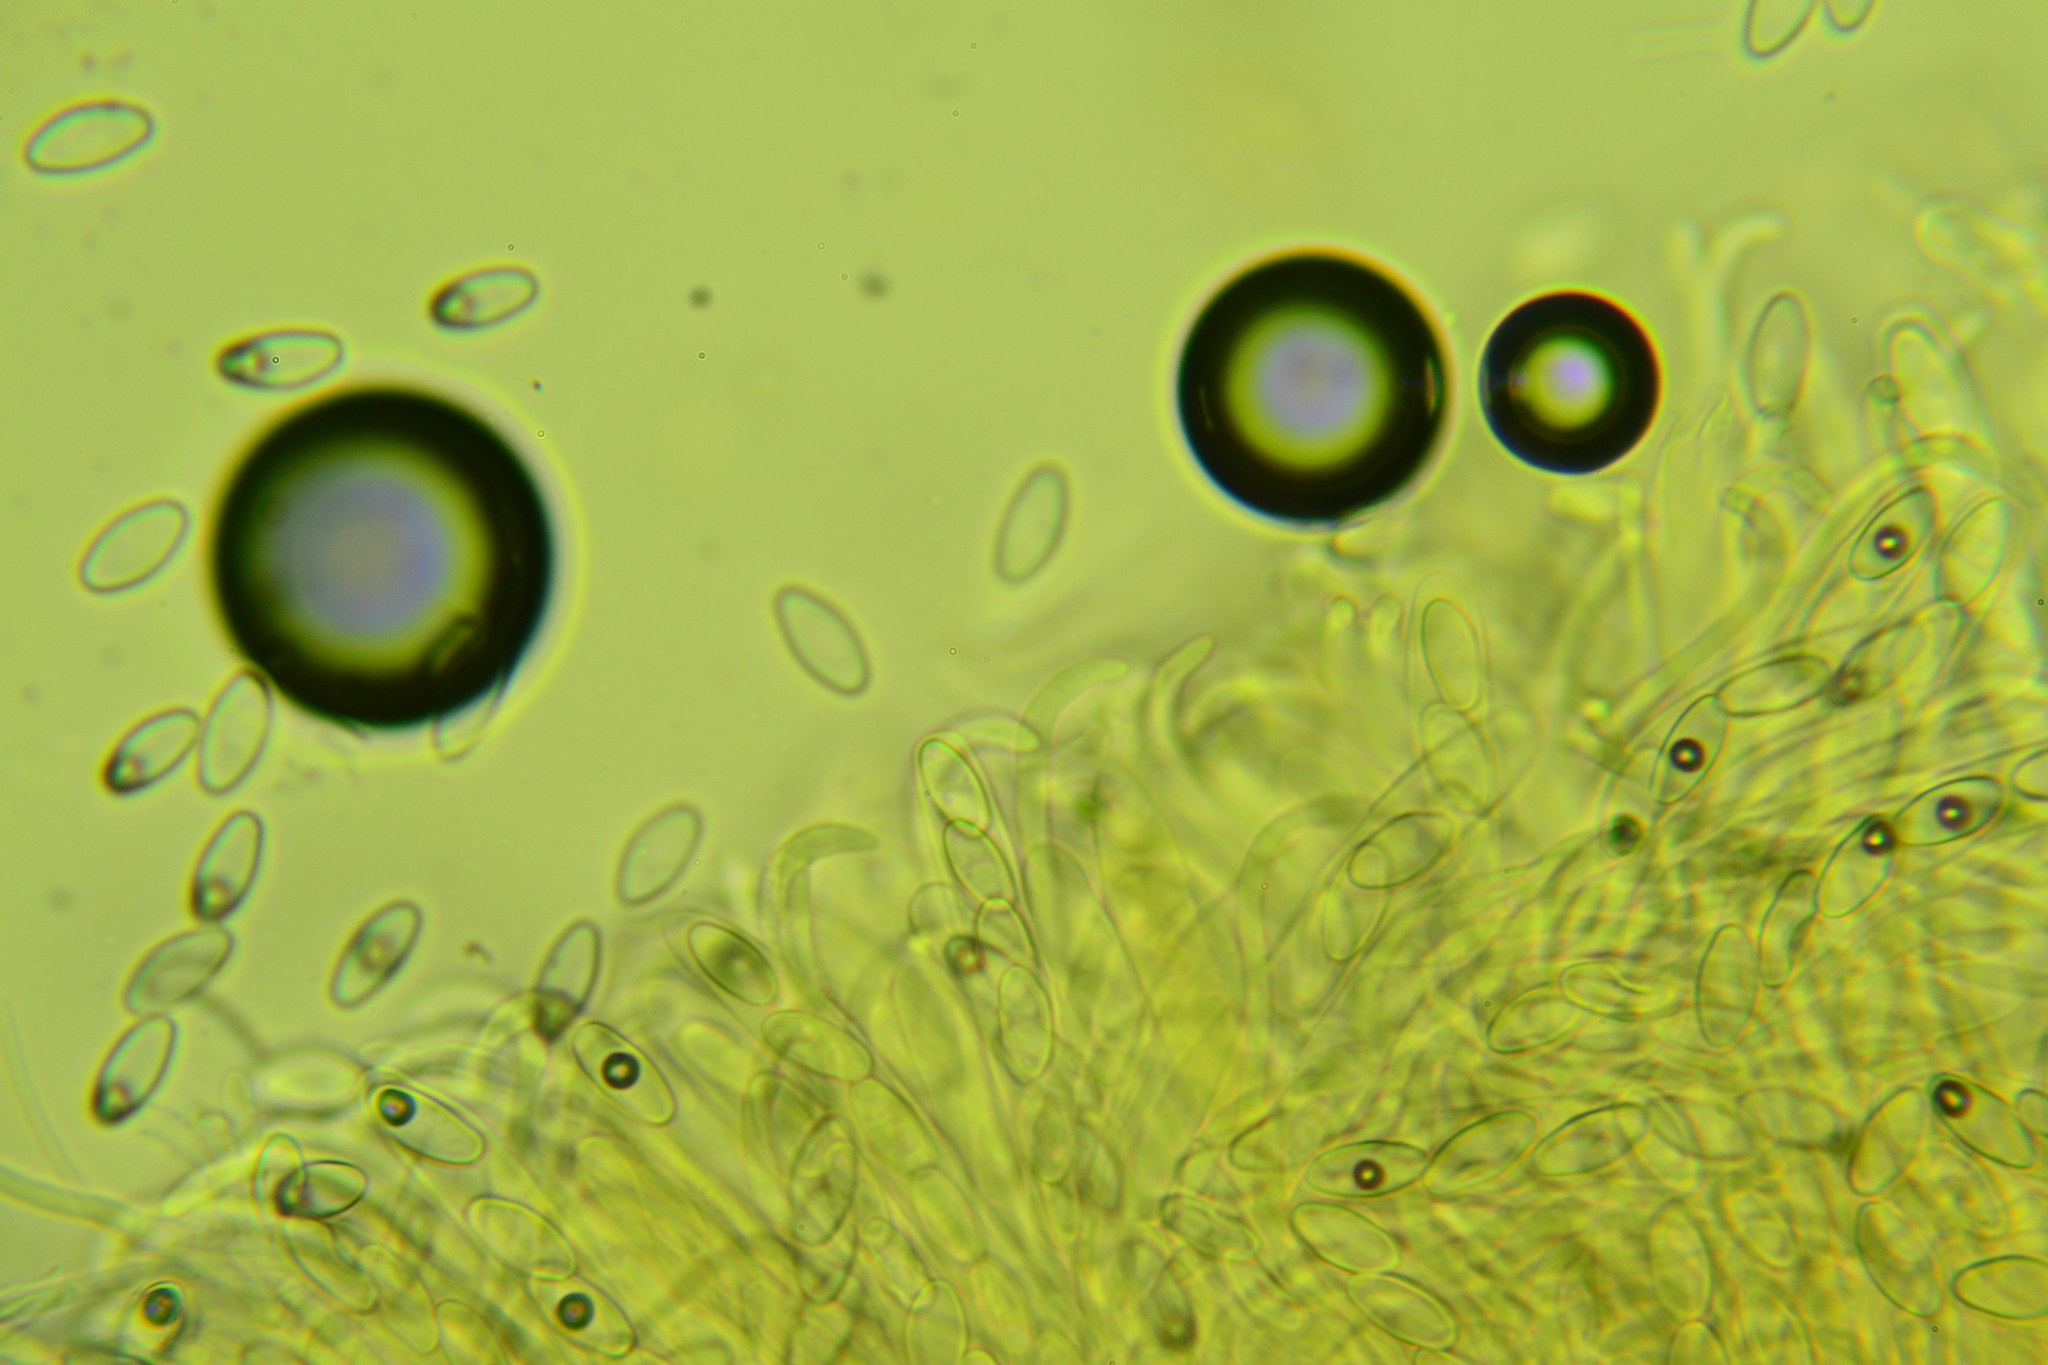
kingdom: Fungi
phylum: Ascomycota
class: Pezizomycetes
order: Pezizales
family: Otideaceae
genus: Otidea
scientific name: Otidea mirabilis
